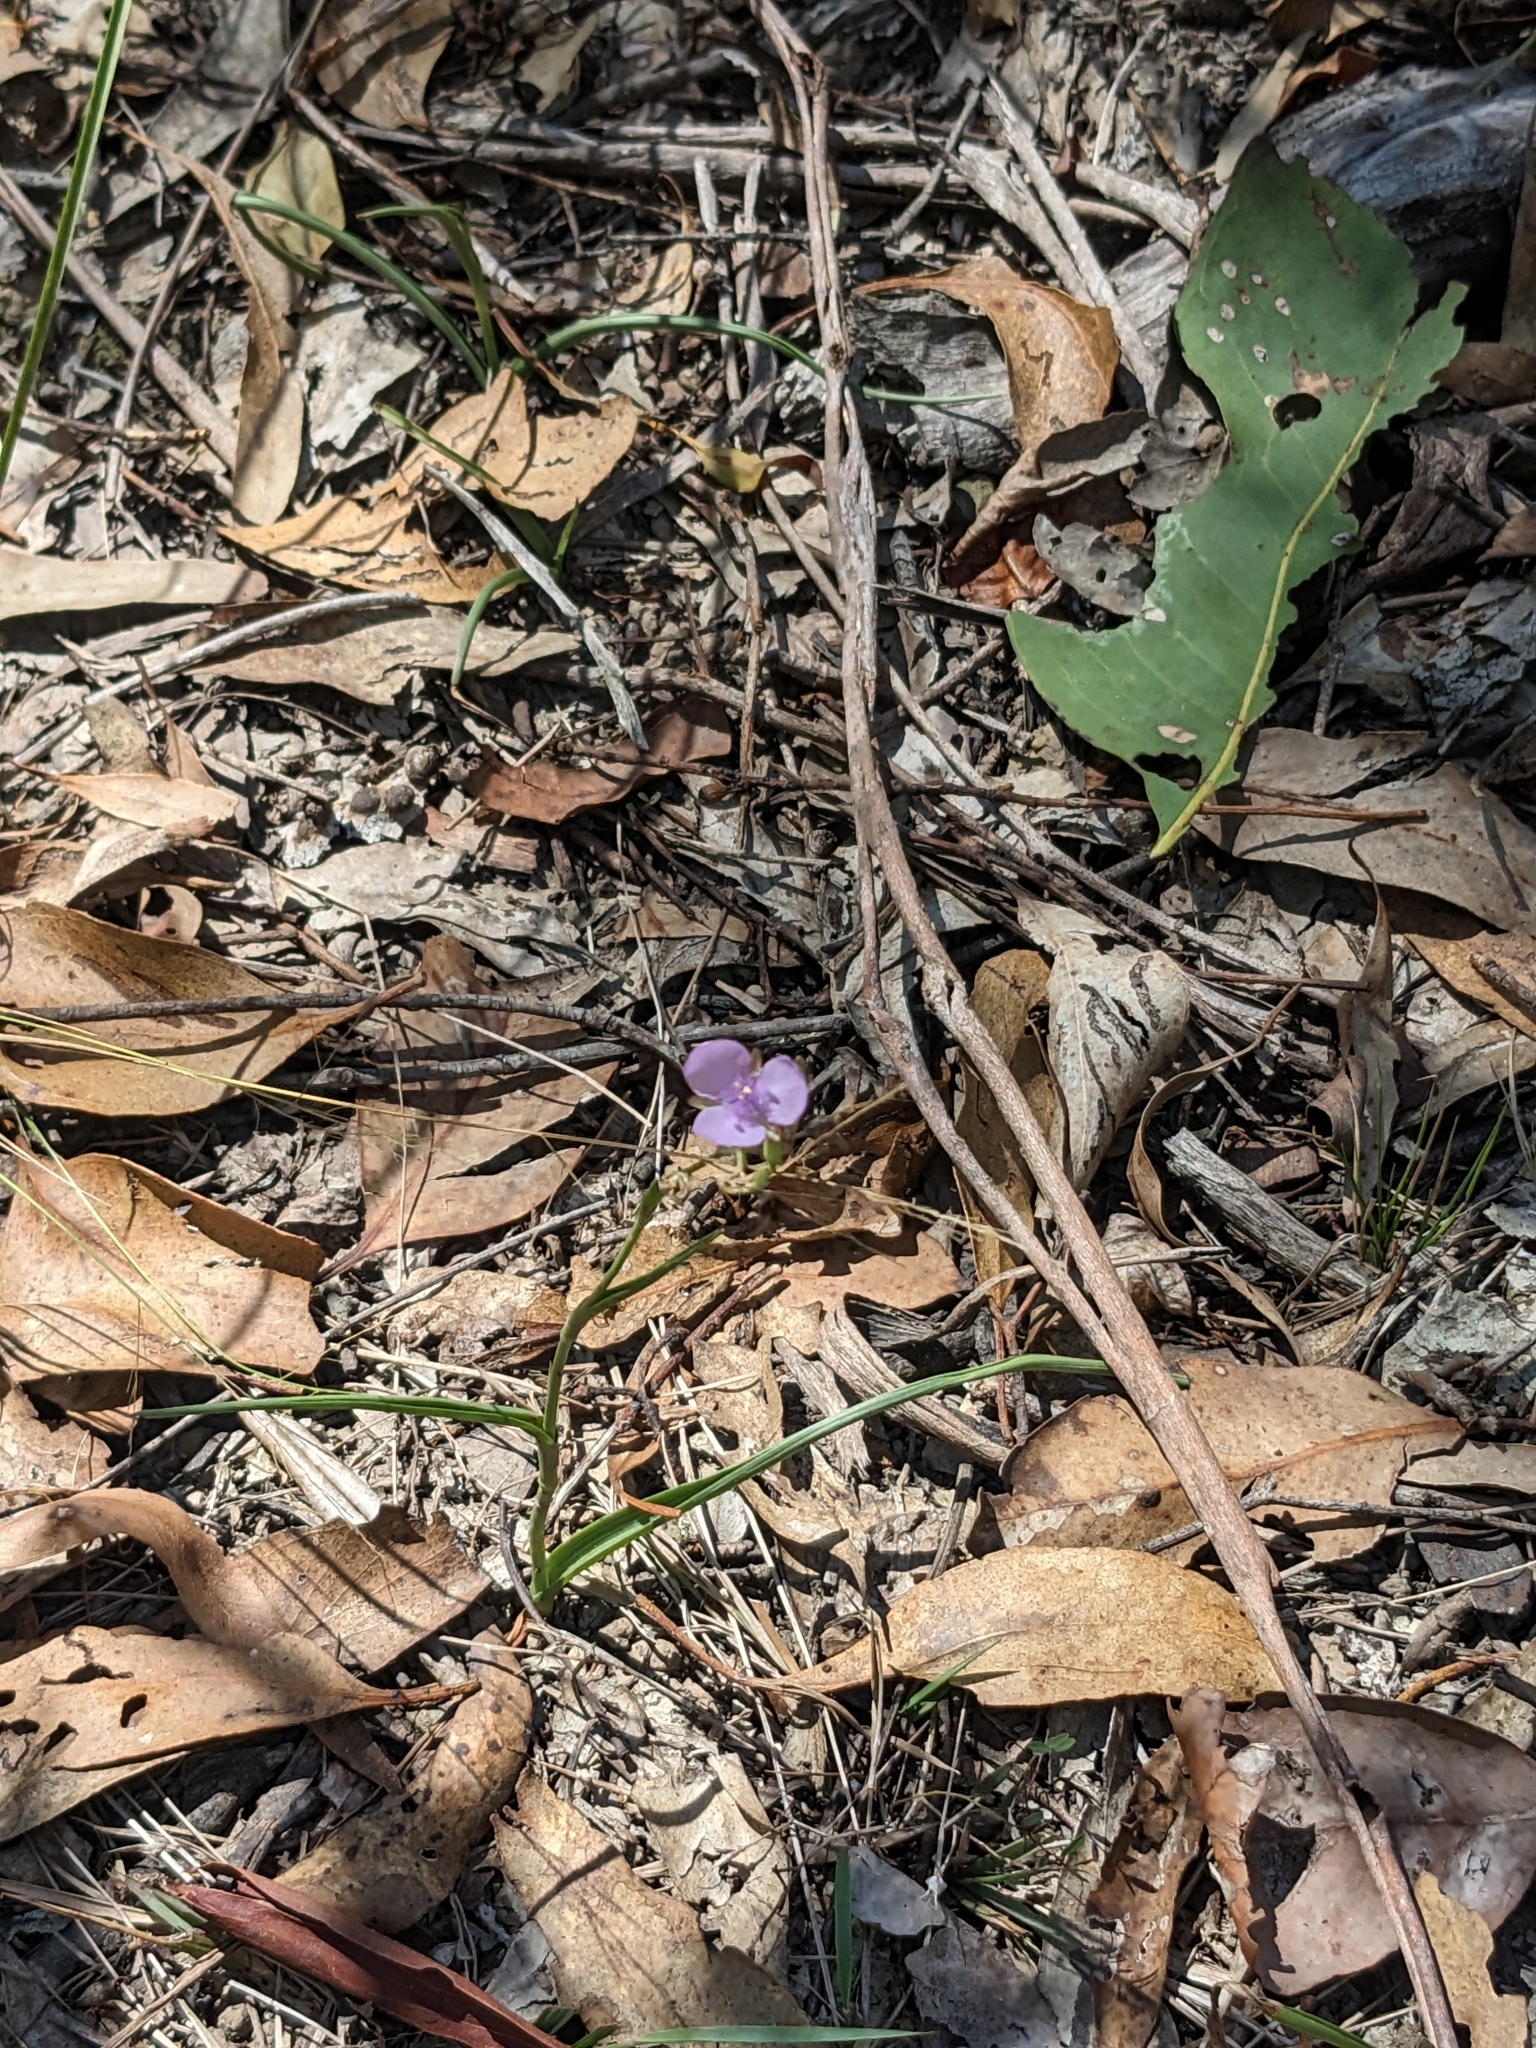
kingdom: Plantae
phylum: Tracheophyta
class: Liliopsida
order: Commelinales
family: Commelinaceae
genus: Murdannia
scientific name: Murdannia graminea
